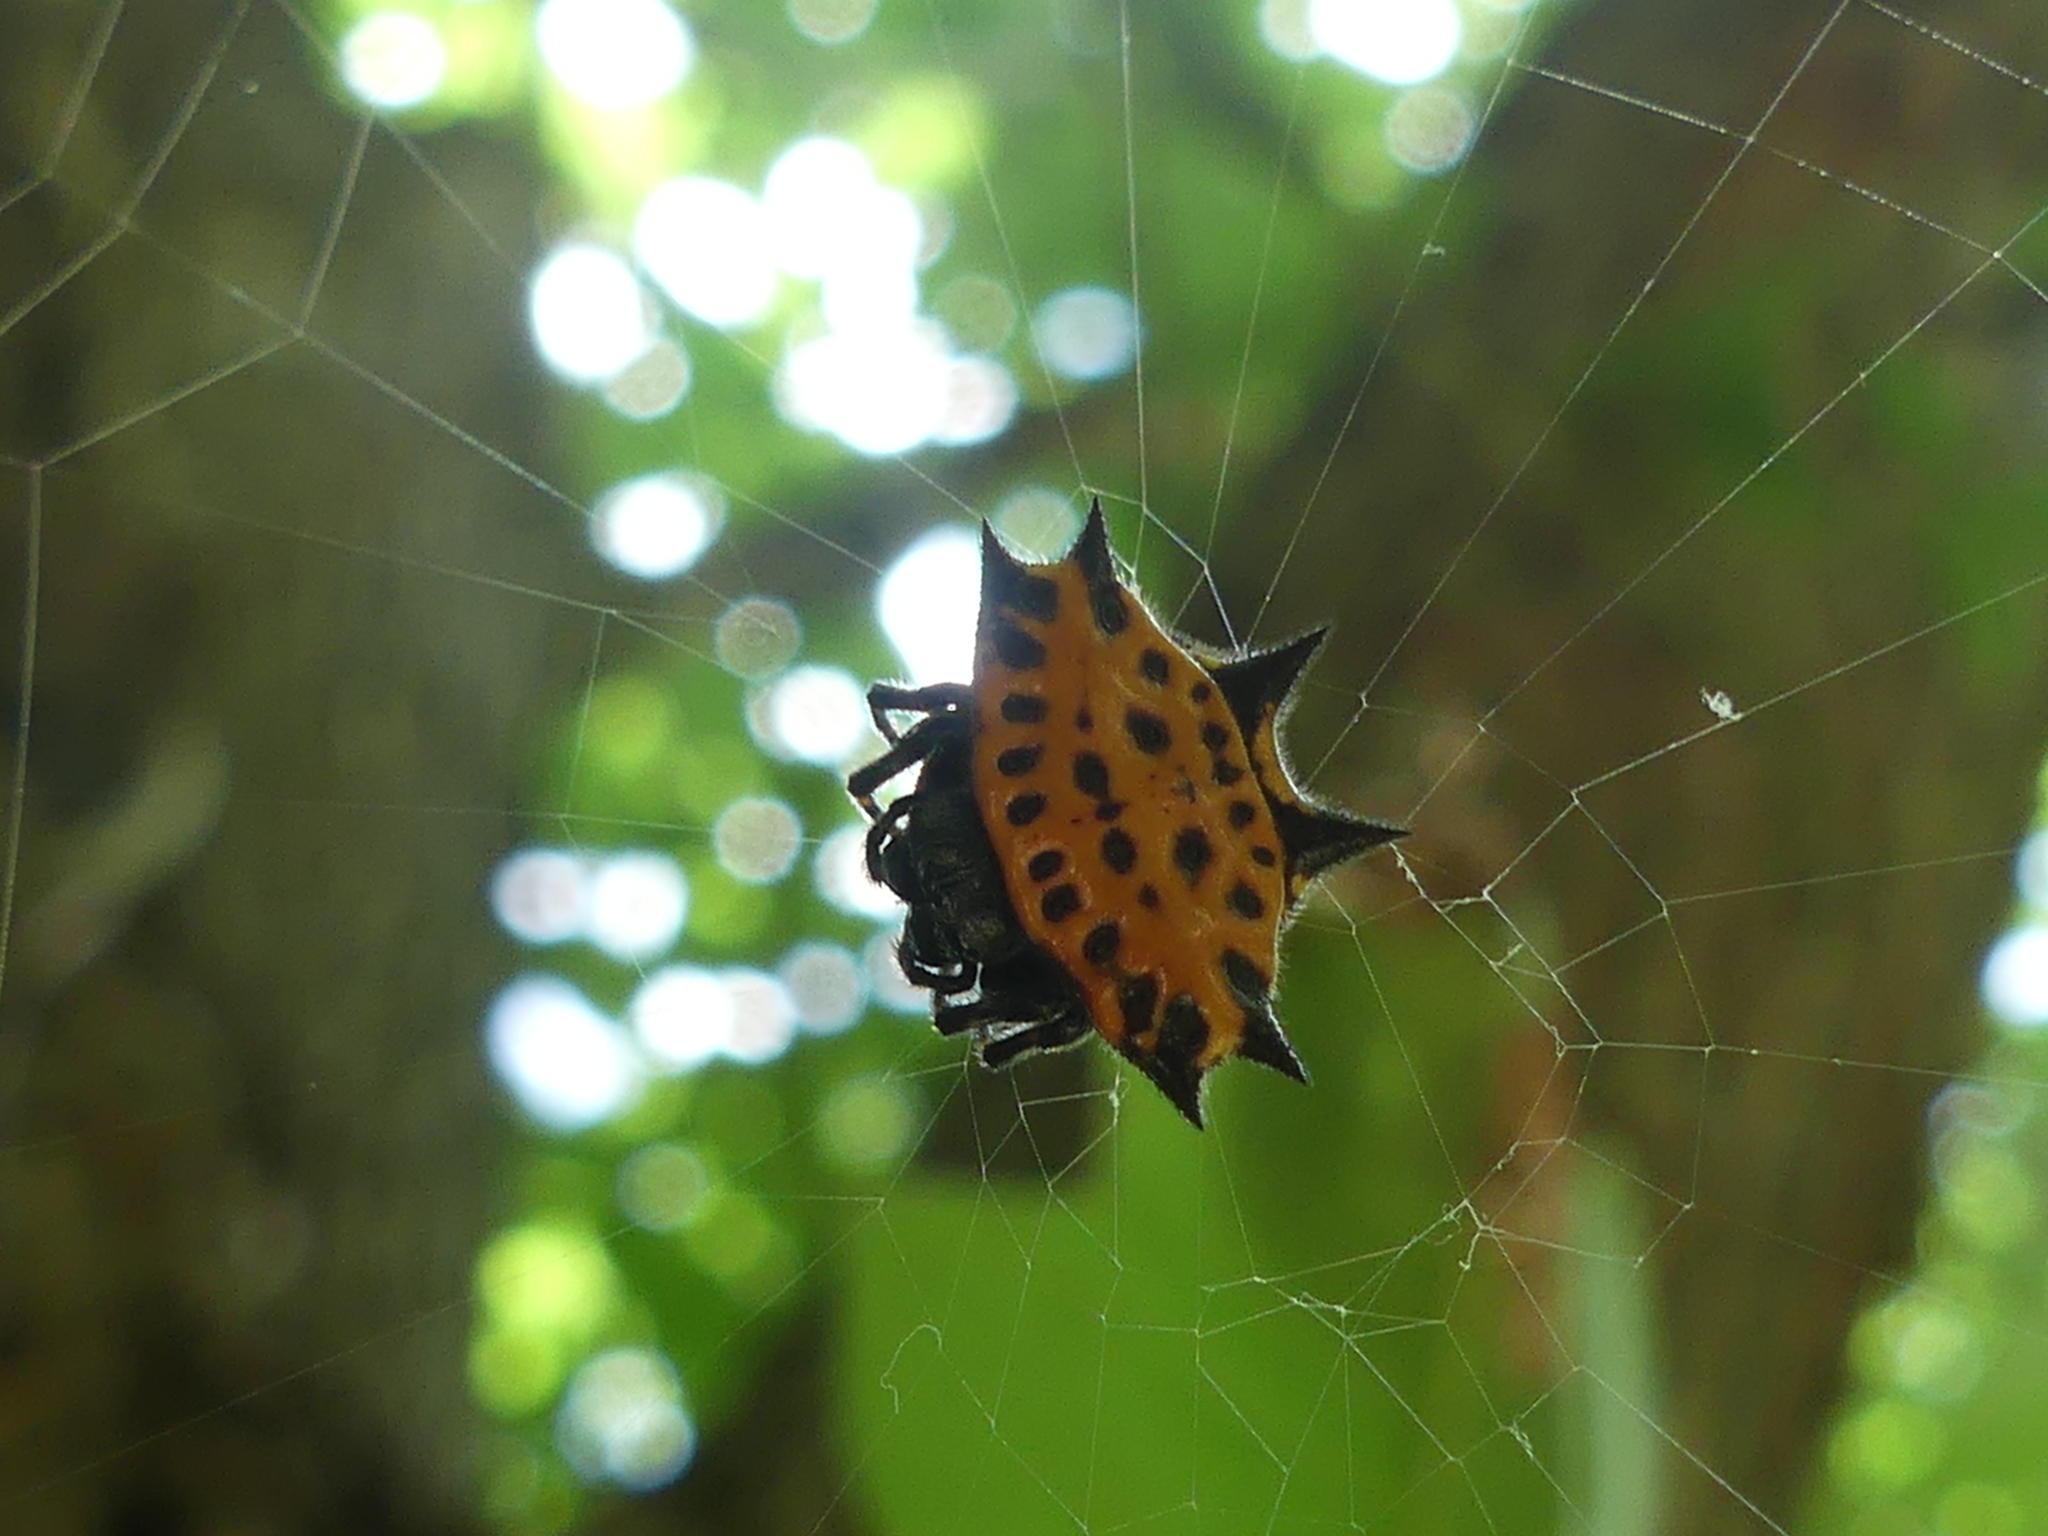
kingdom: Animalia
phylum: Arthropoda
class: Arachnida
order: Araneae
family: Araneidae
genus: Gasteracantha
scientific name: Gasteracantha cancriformis
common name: Orb weavers
